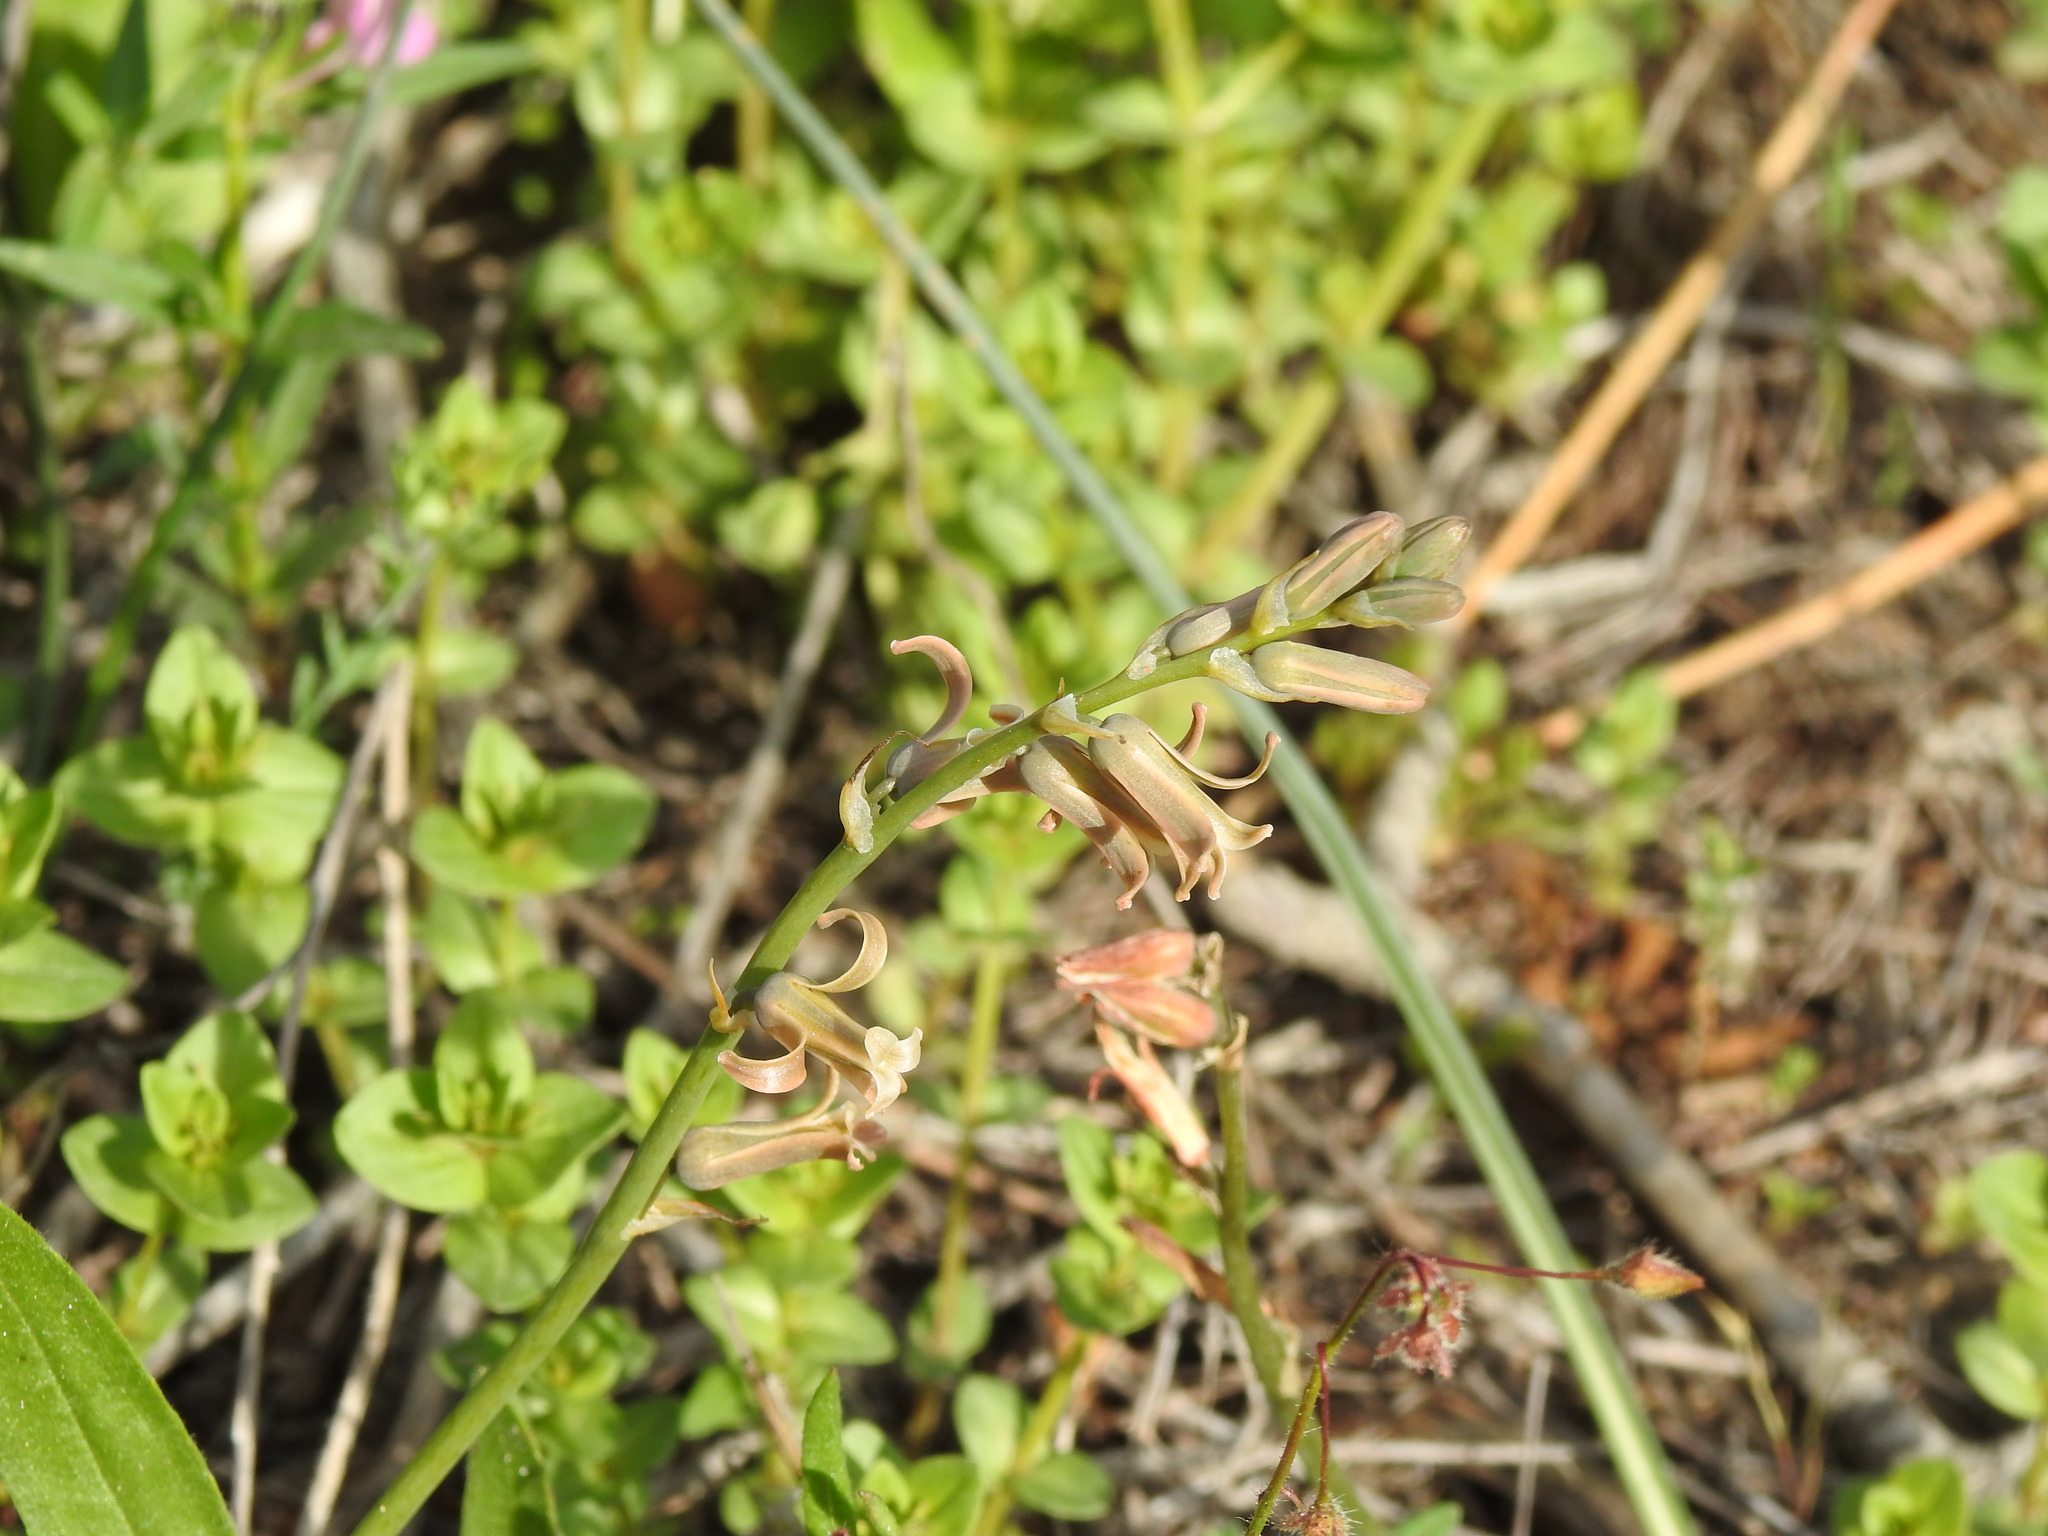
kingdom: Plantae
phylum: Tracheophyta
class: Liliopsida
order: Asparagales
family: Asparagaceae
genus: Dipcadi
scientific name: Dipcadi serotinum
